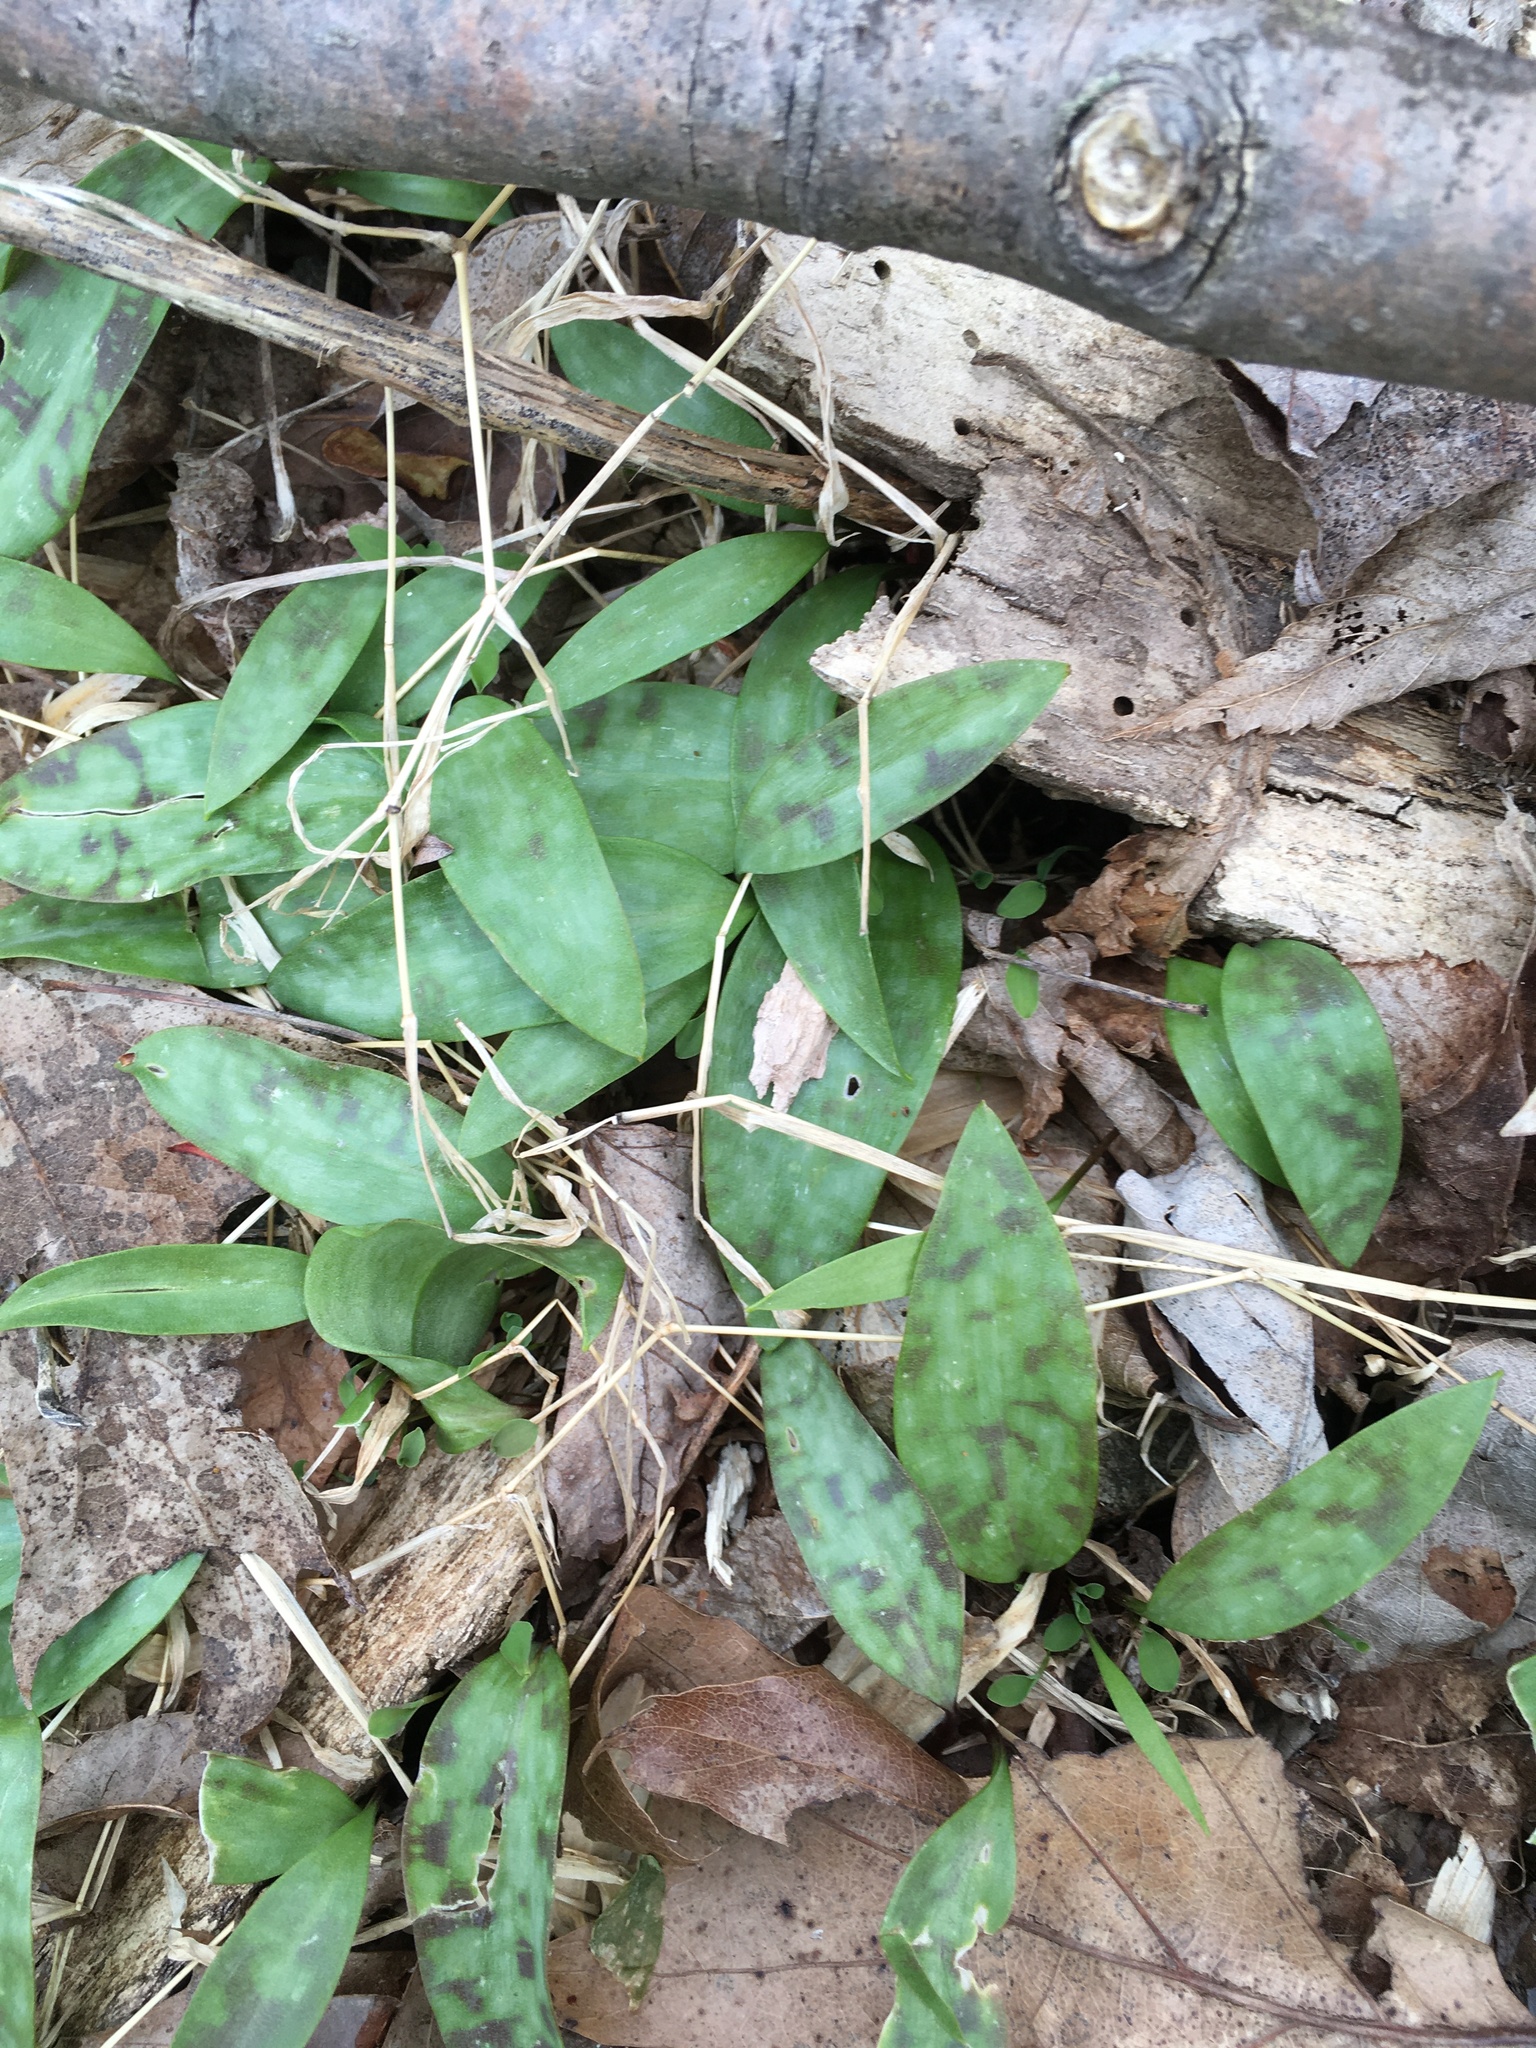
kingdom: Plantae
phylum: Tracheophyta
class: Liliopsida
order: Liliales
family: Liliaceae
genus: Erythronium
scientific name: Erythronium americanum
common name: Yellow adder's-tongue
